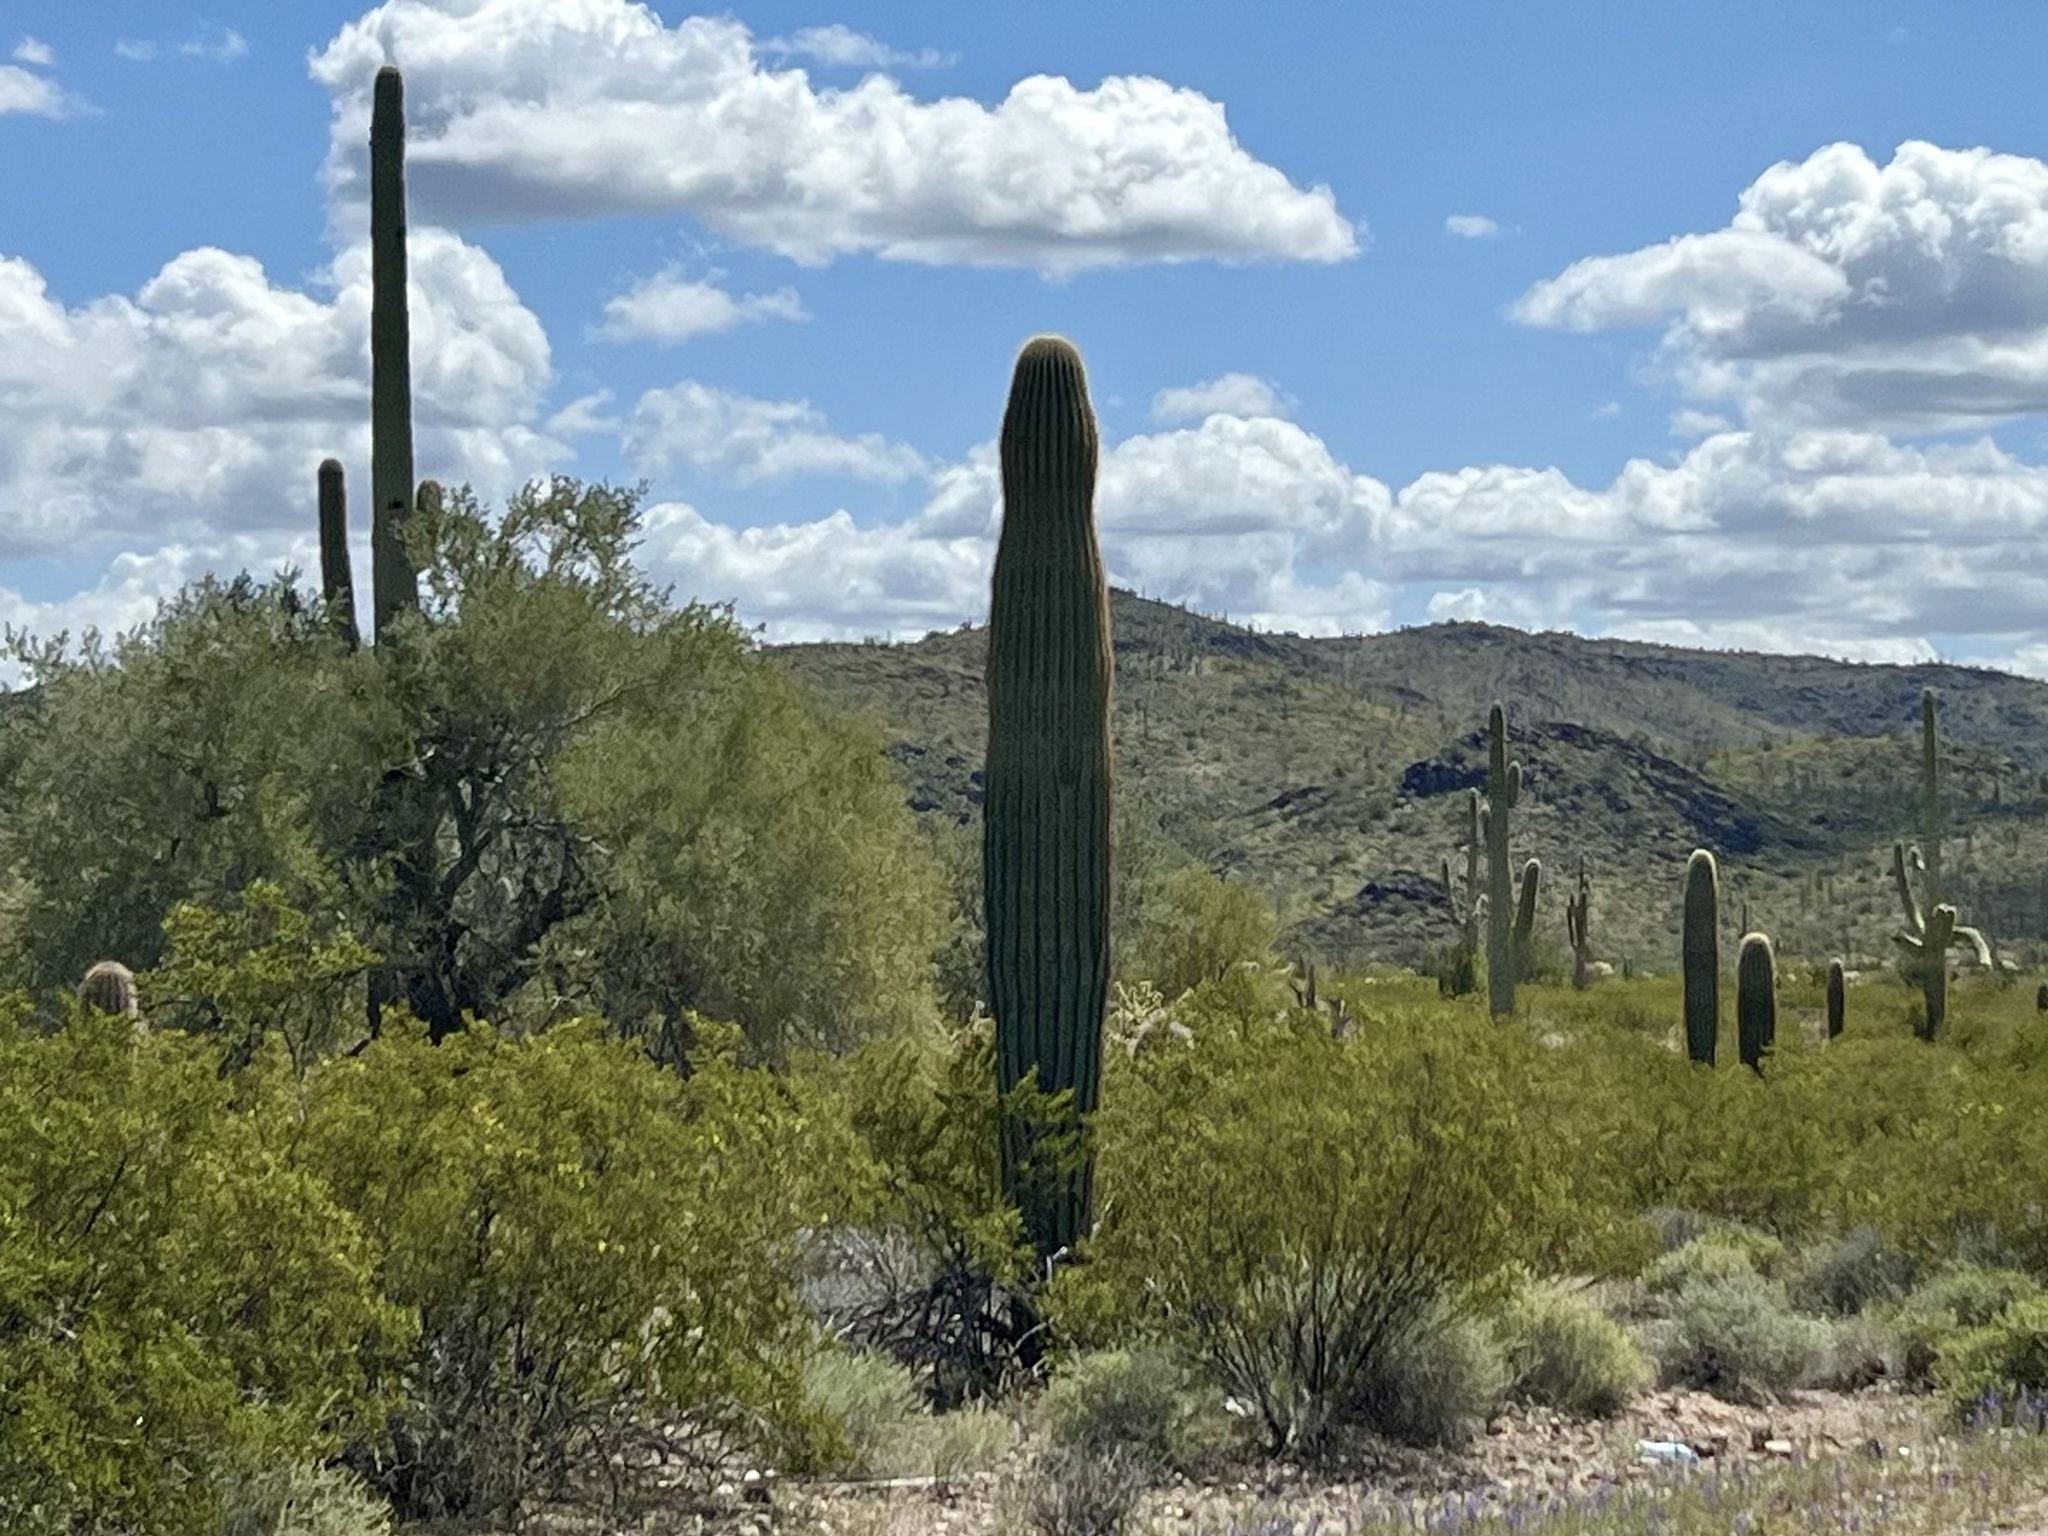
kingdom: Plantae
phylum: Tracheophyta
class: Magnoliopsida
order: Caryophyllales
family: Cactaceae
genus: Carnegiea
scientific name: Carnegiea gigantea
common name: Saguaro
